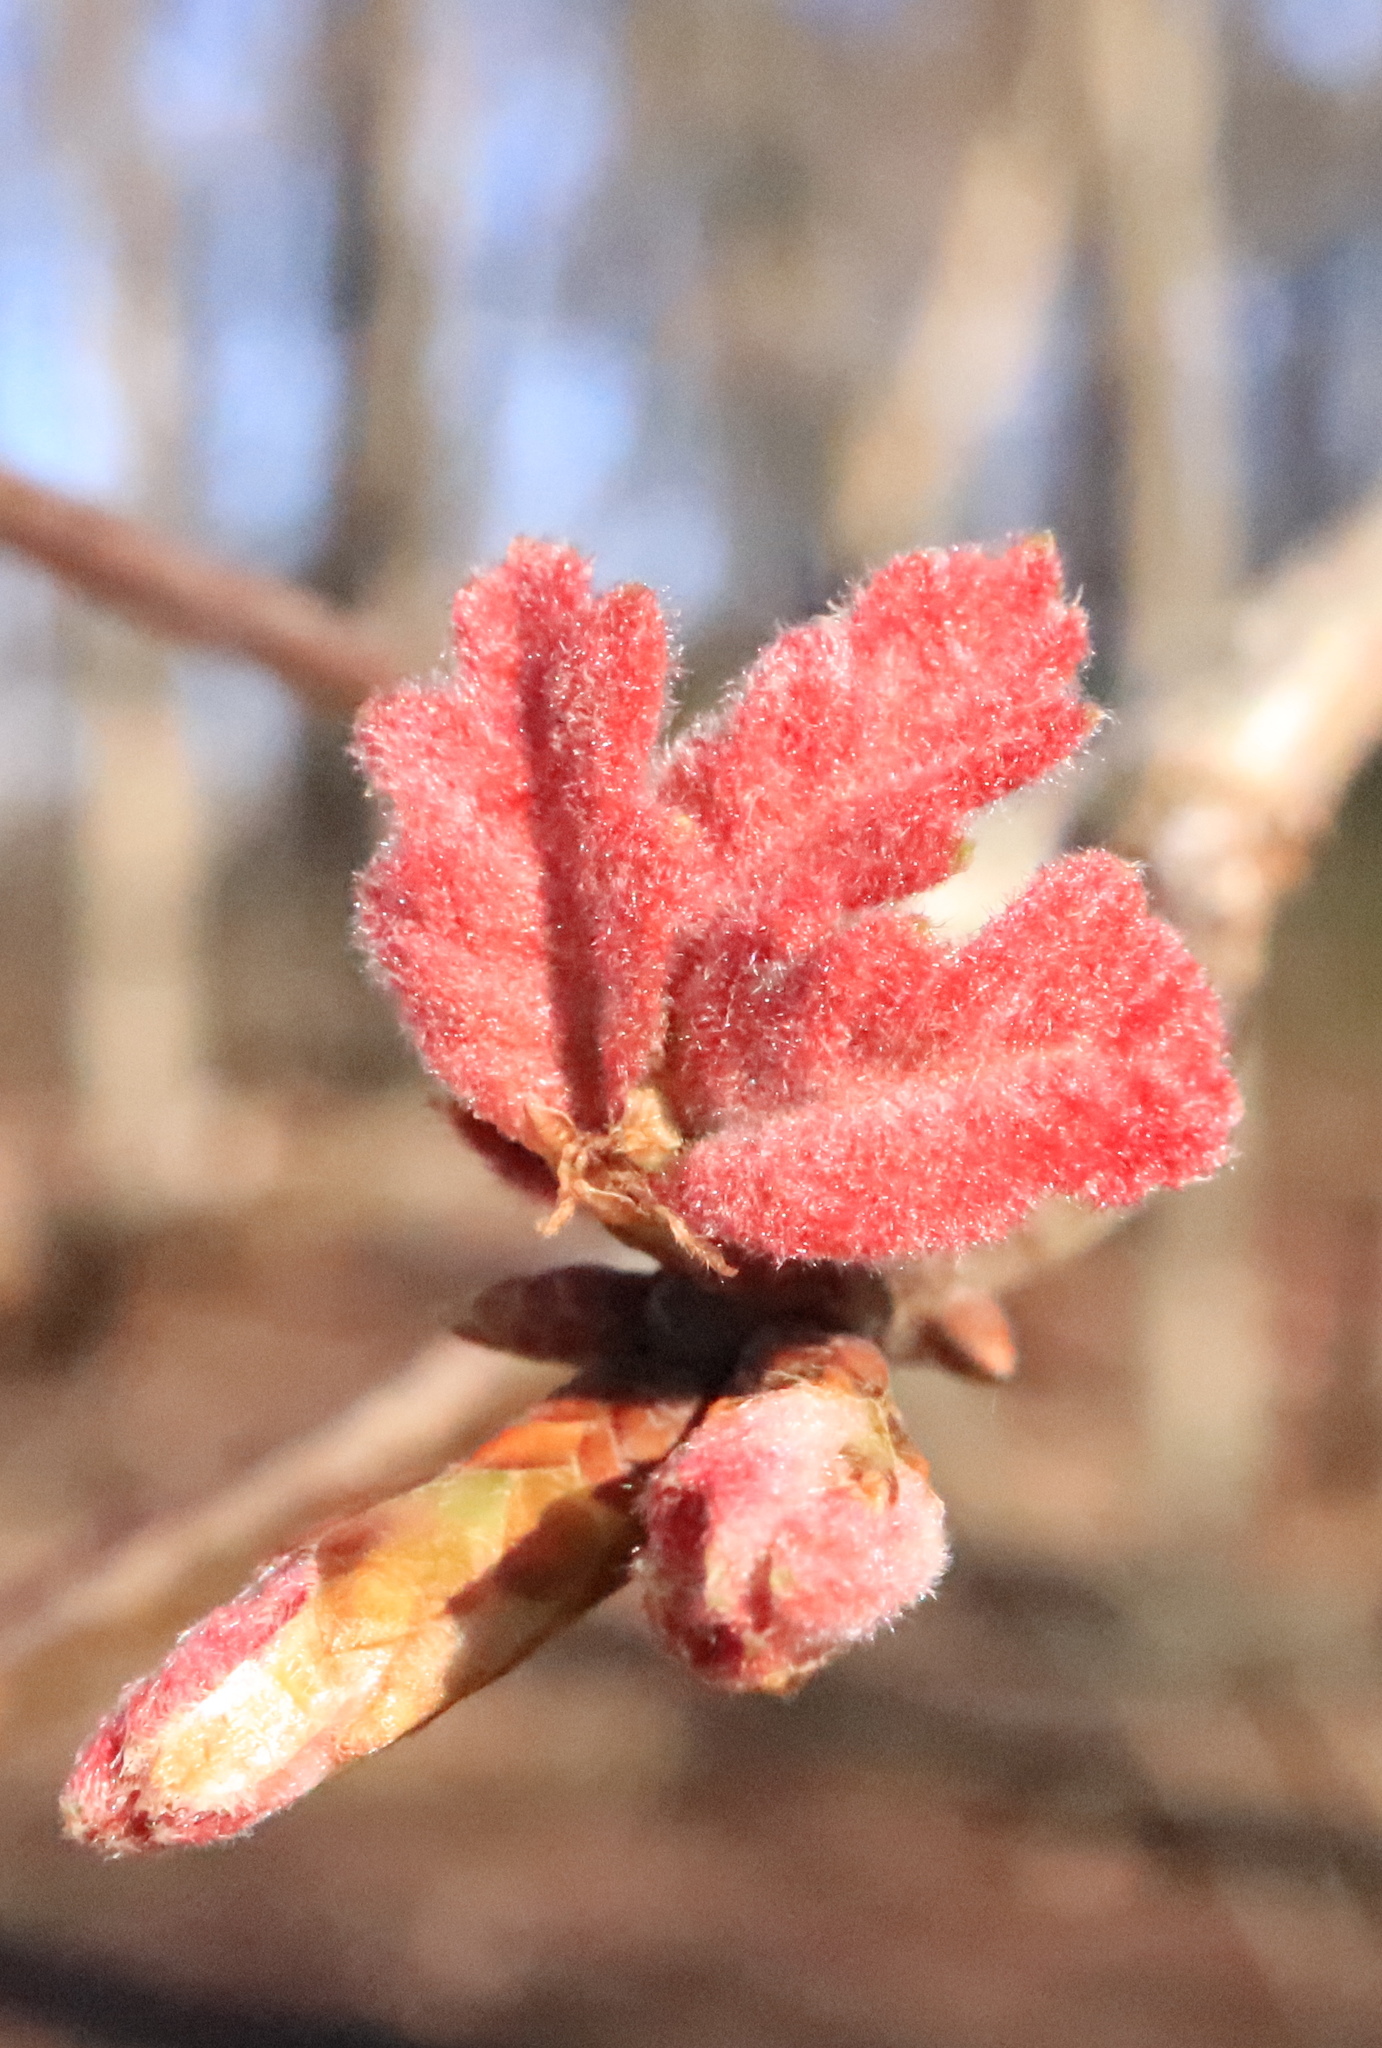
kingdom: Plantae
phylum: Tracheophyta
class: Magnoliopsida
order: Fagales
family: Fagaceae
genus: Quercus
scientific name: Quercus alba
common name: White oak
